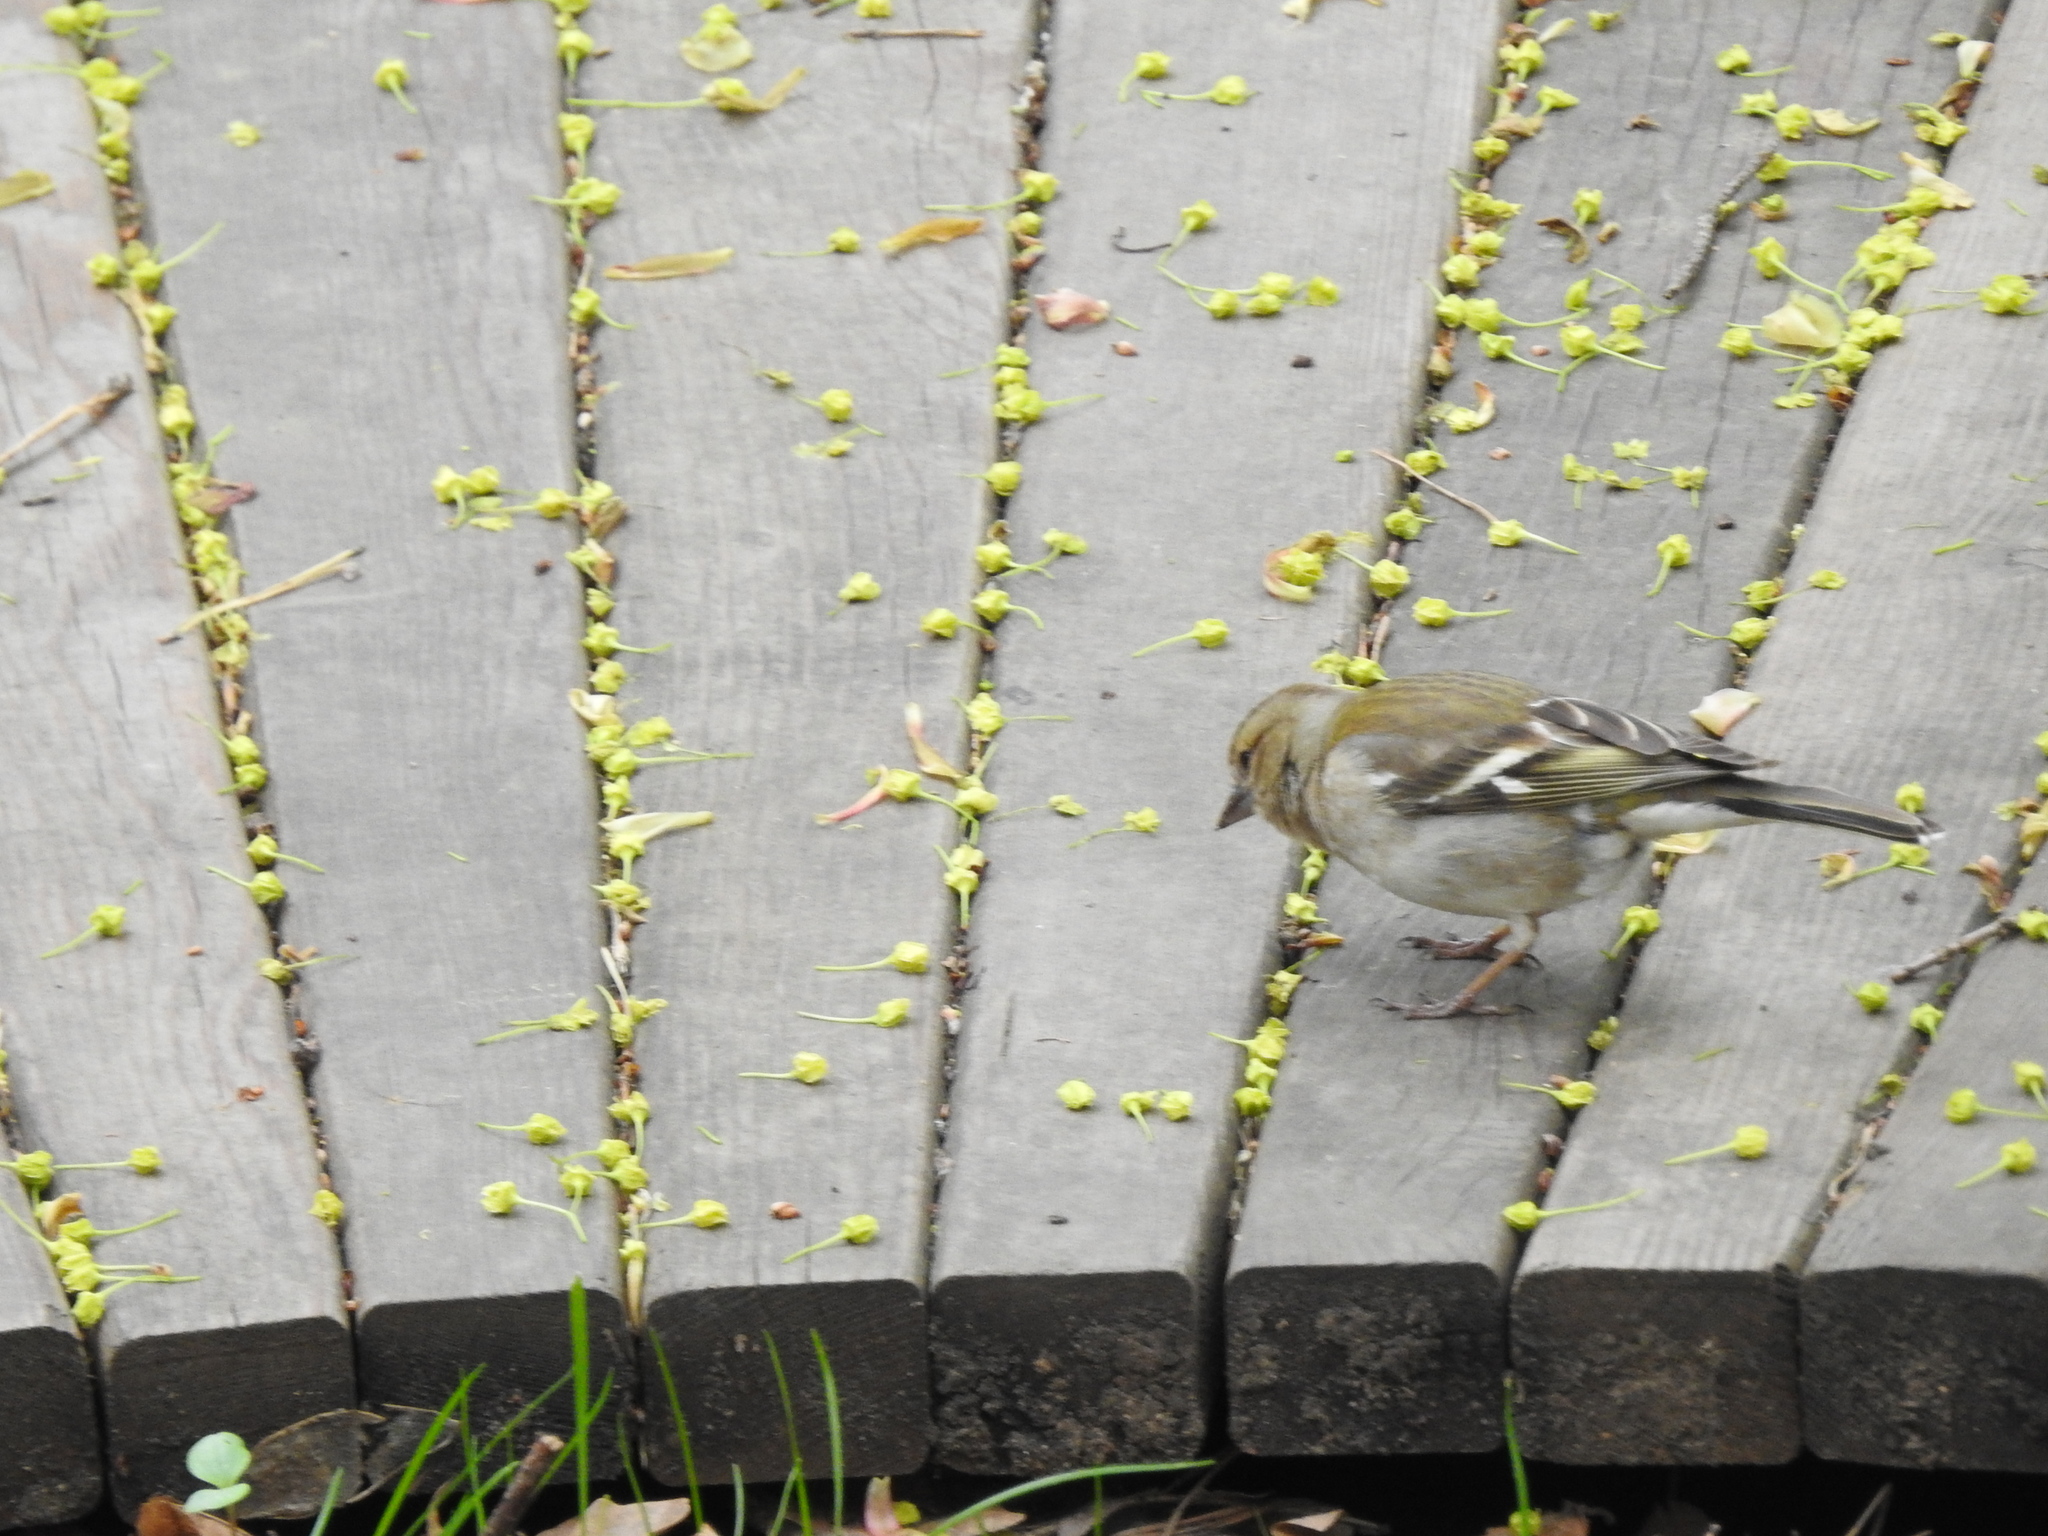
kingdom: Animalia
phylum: Chordata
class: Aves
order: Passeriformes
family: Fringillidae
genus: Fringilla
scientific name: Fringilla coelebs
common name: Common chaffinch
